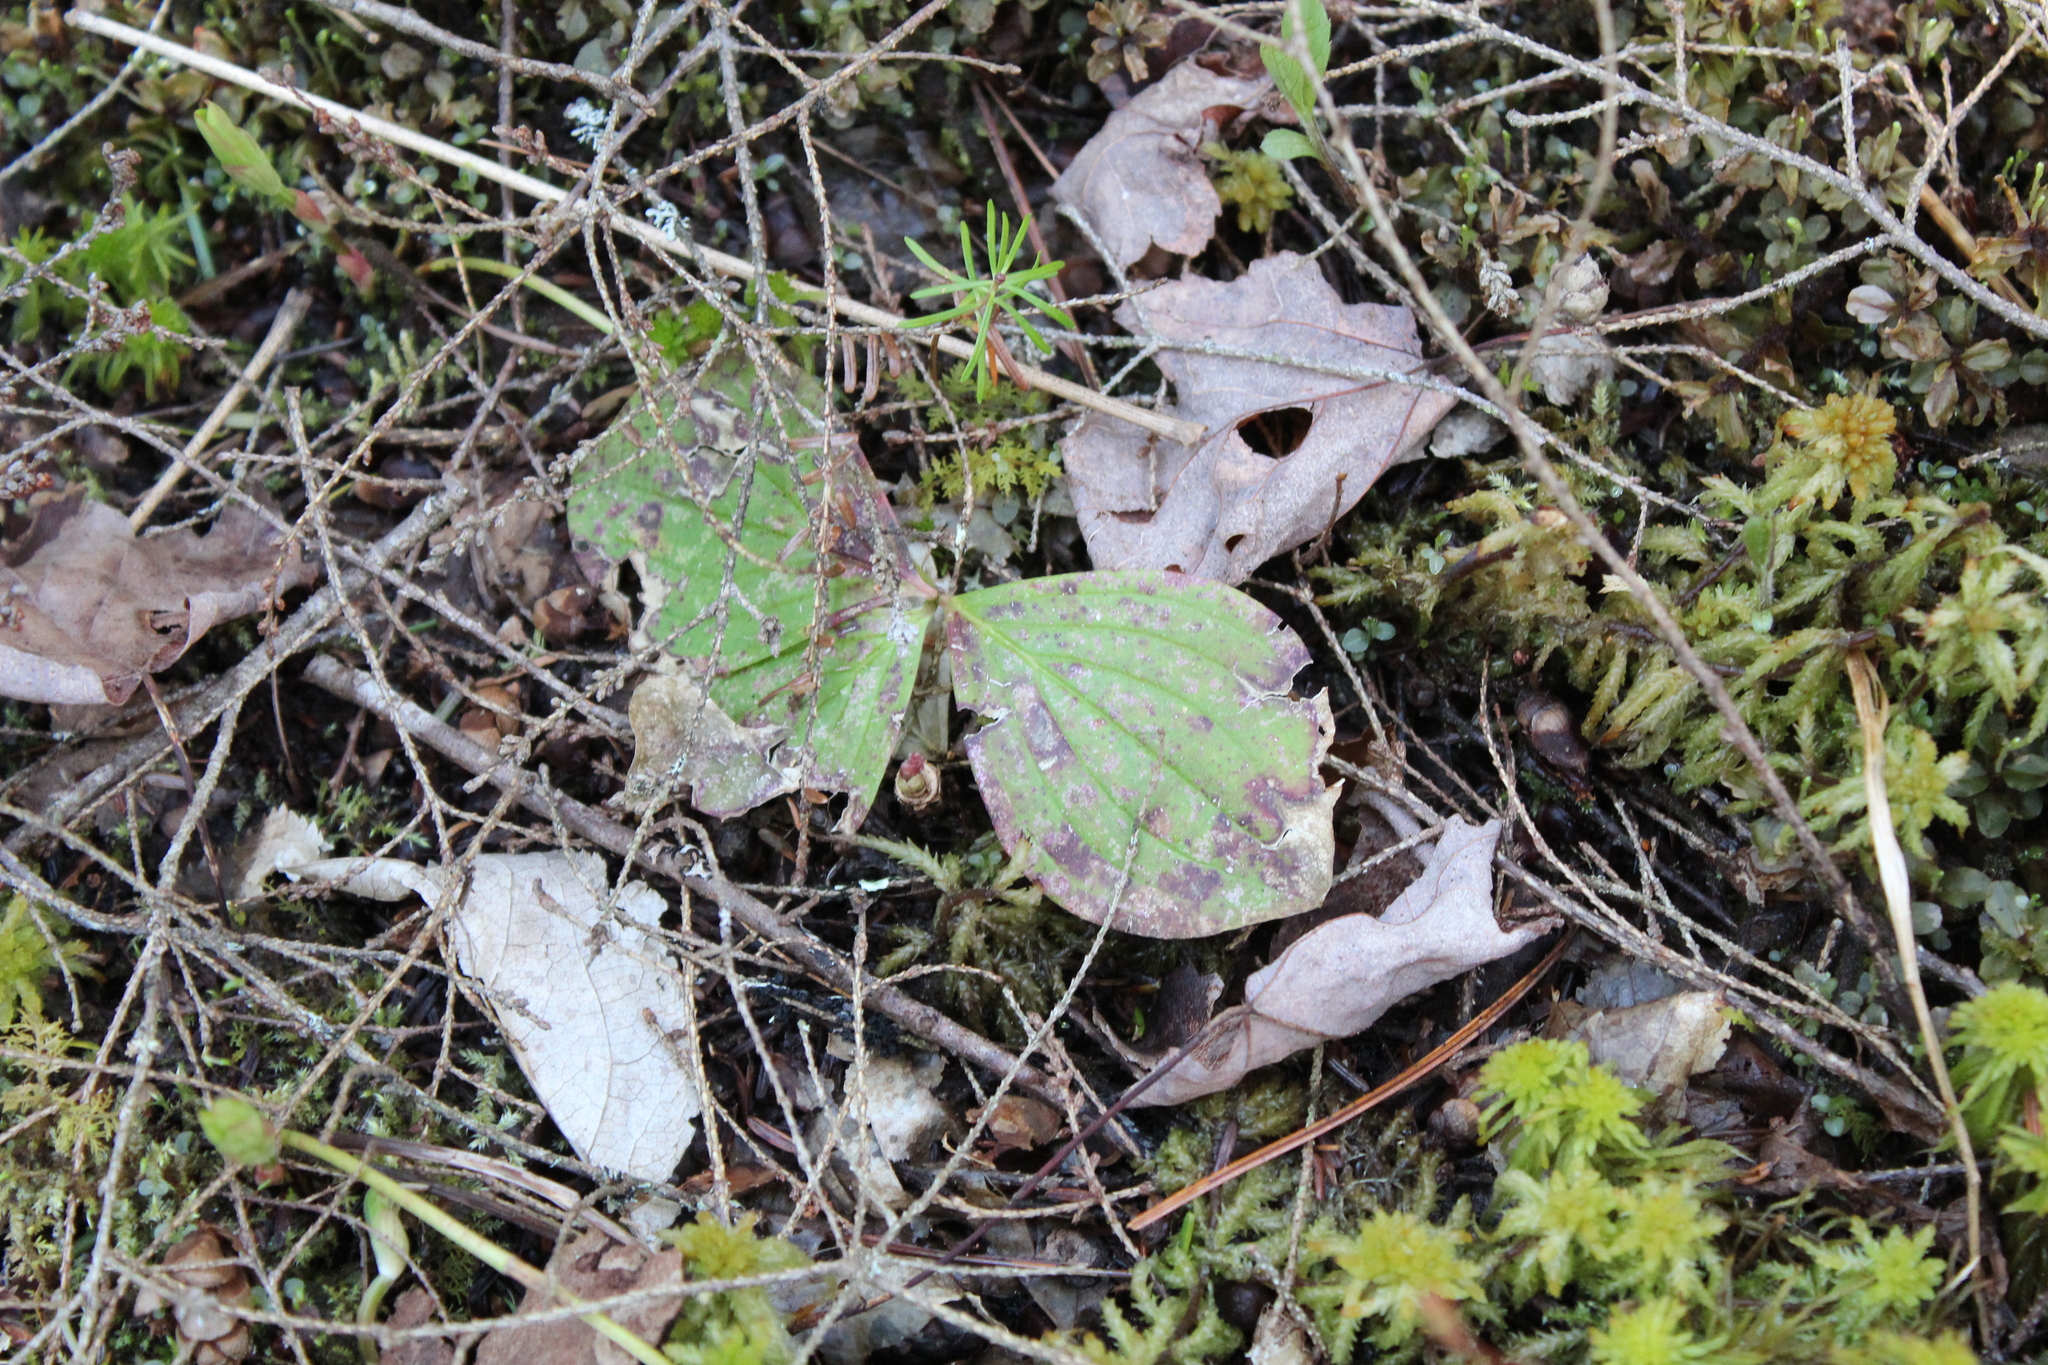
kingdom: Plantae
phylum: Tracheophyta
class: Magnoliopsida
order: Cornales
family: Cornaceae
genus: Cornus
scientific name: Cornus canadensis
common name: Creeping dogwood
